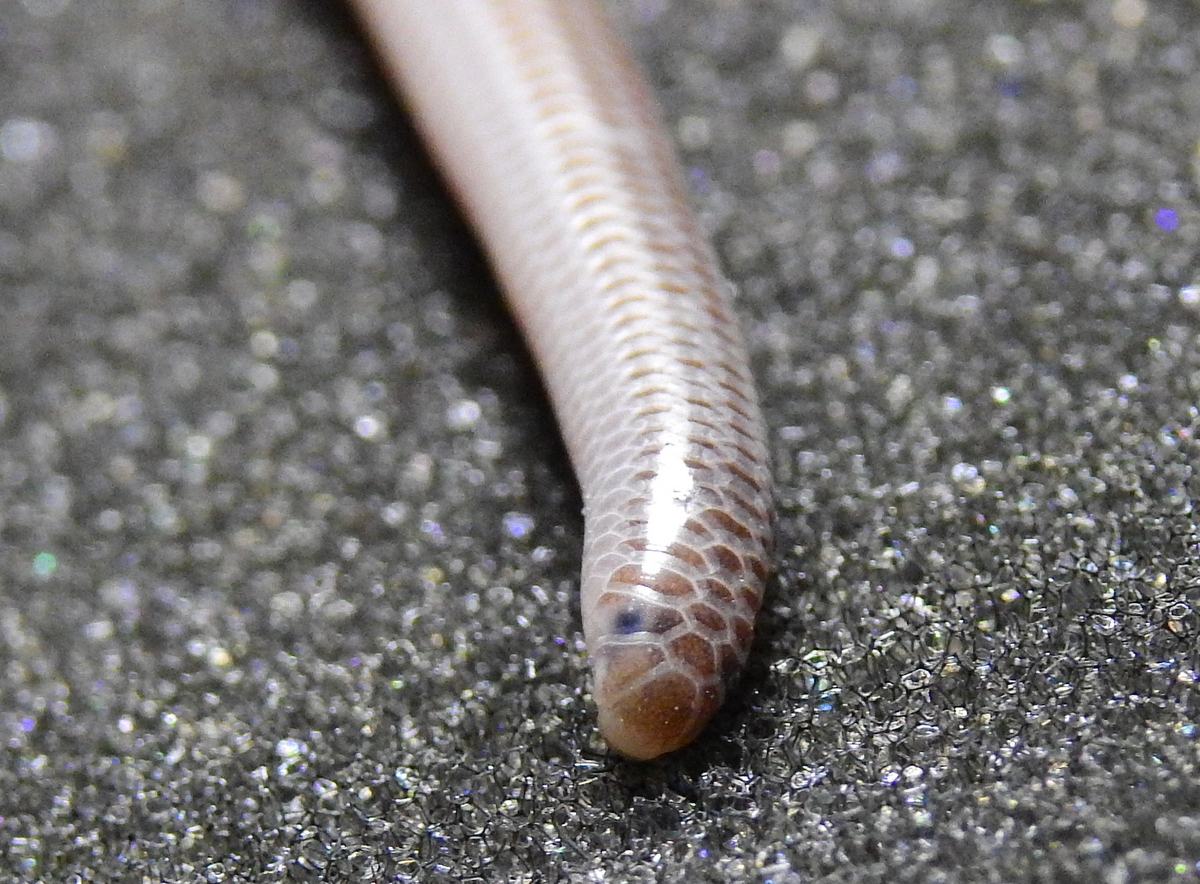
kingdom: Animalia
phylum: Chordata
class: Squamata
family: Leptotyphlopidae
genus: Siagonodon
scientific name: Siagonodon borrichianus
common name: Degerbol's blind snake
